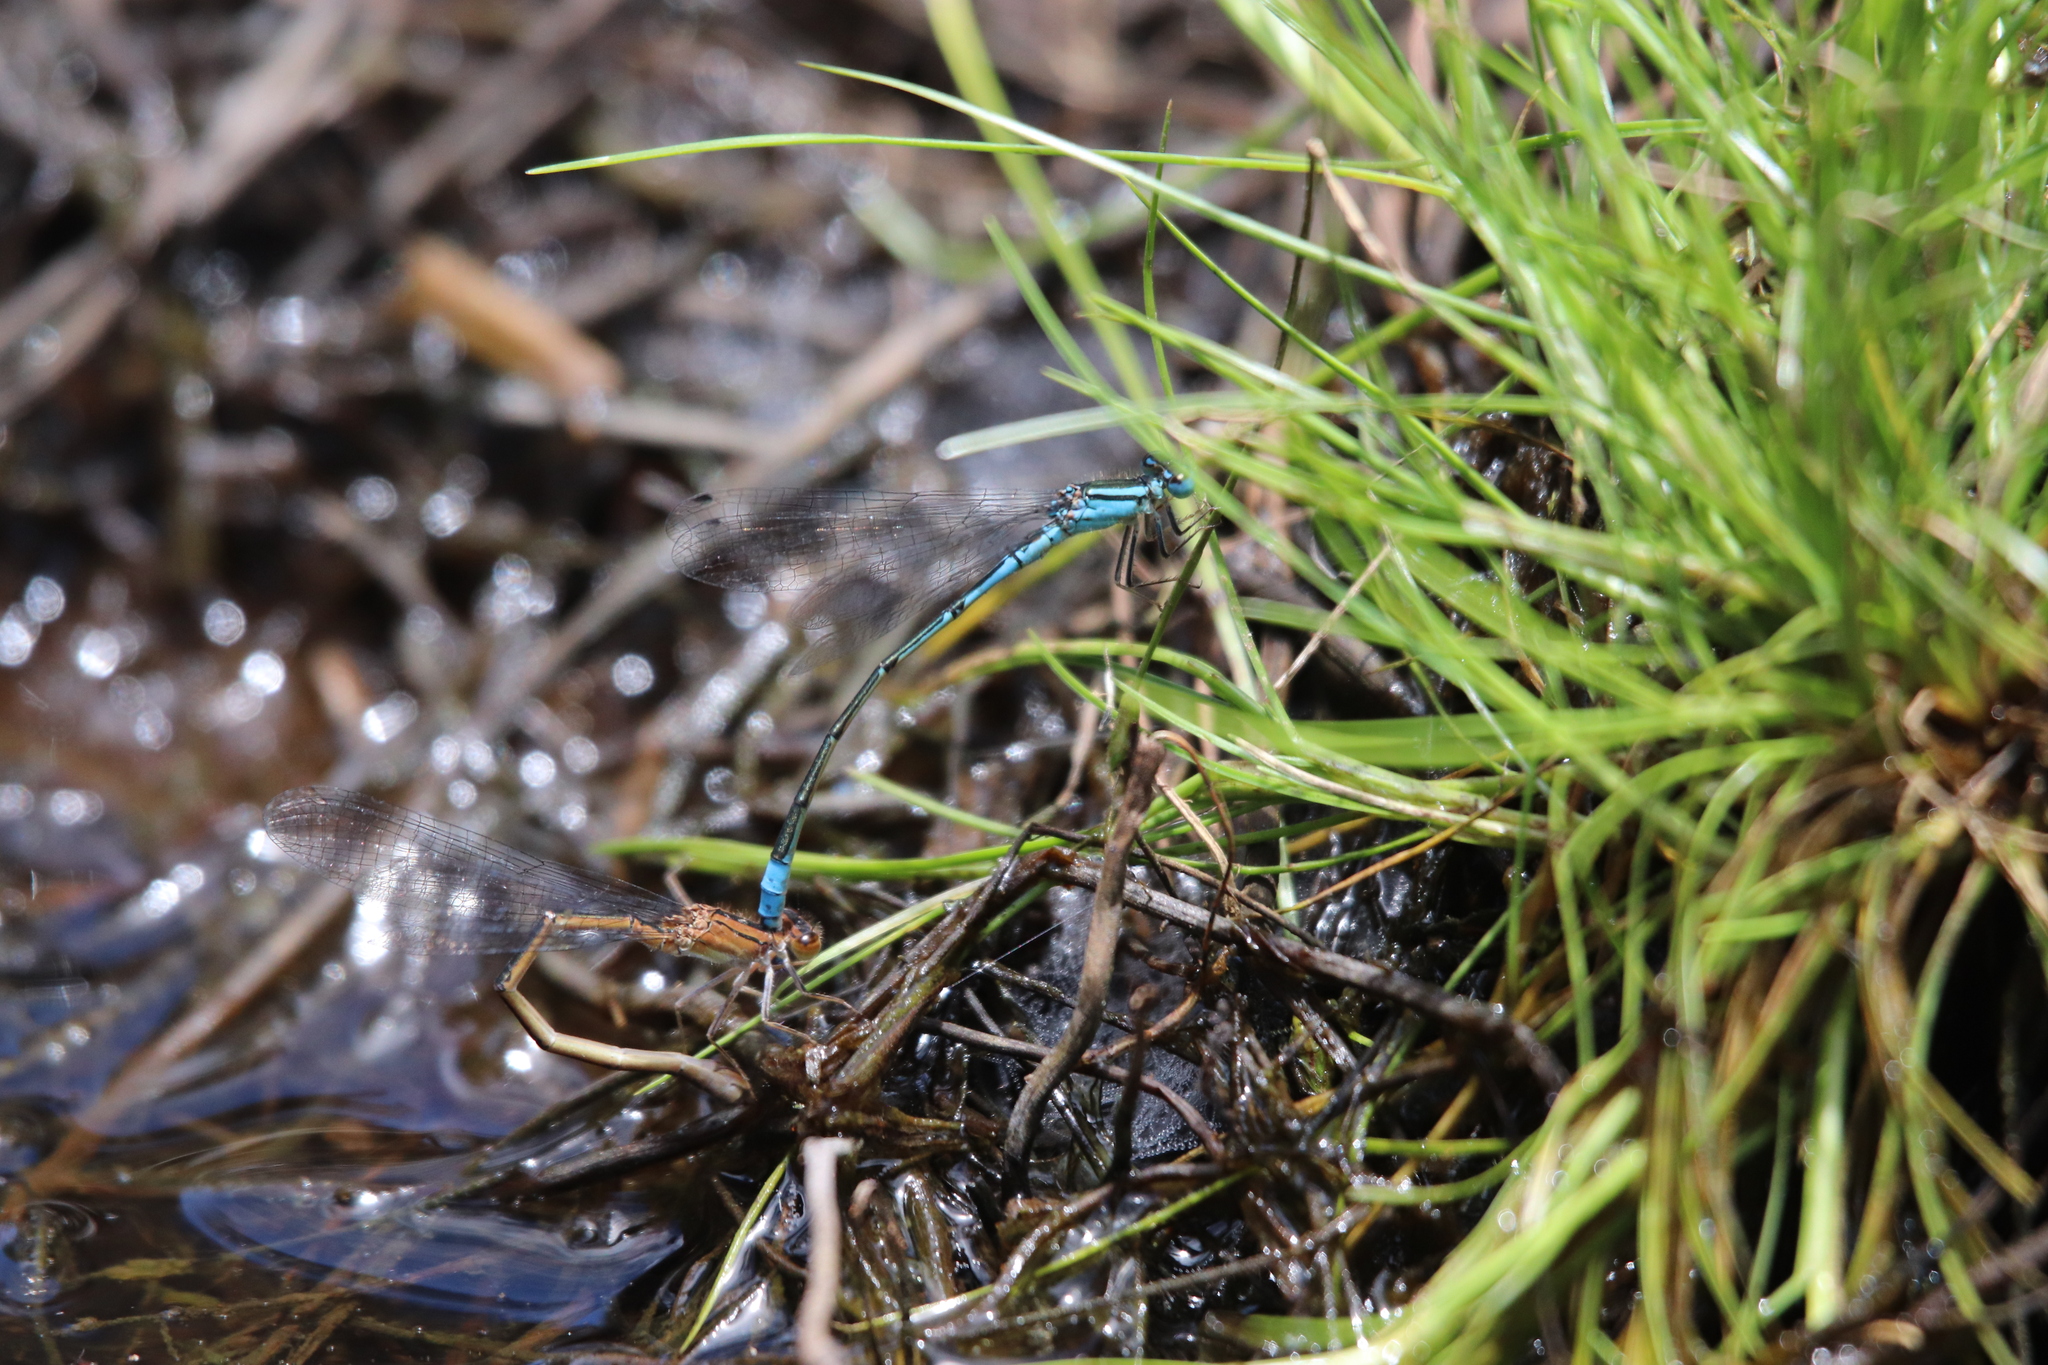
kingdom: Animalia
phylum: Arthropoda
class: Insecta
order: Odonata
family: Coenagrionidae
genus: Africallagma
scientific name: Africallagma glaucum
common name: Swamp bluet
